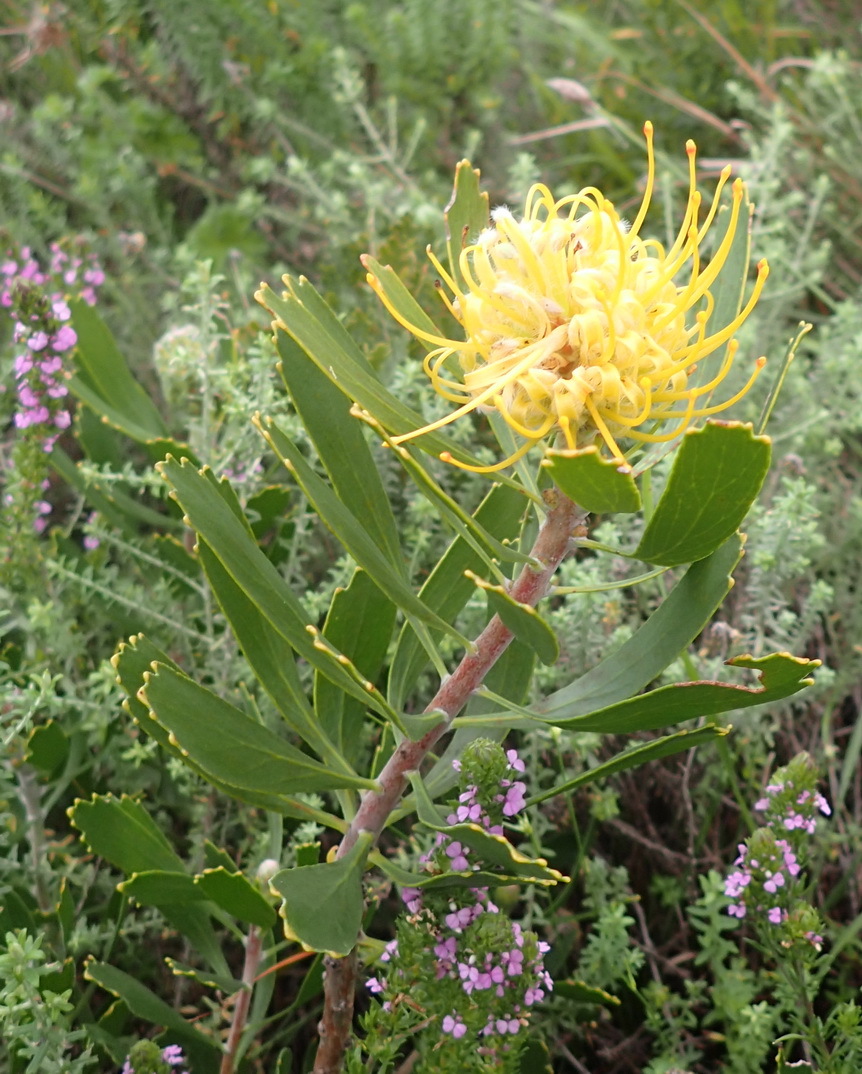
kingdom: Plantae
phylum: Tracheophyta
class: Magnoliopsida
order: Proteales
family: Proteaceae
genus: Leucospermum
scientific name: Leucospermum cuneiforme
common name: Common pincushion
